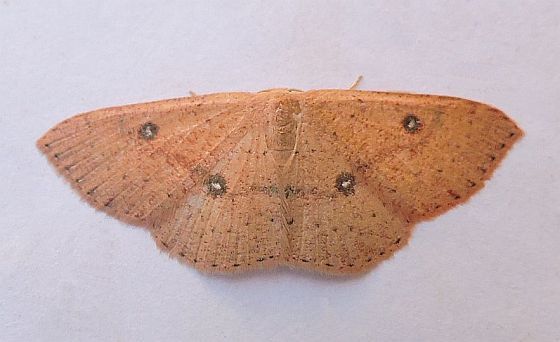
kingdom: Animalia
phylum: Arthropoda
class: Insecta
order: Lepidoptera
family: Geometridae
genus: Cyclophora
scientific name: Cyclophora dataria
